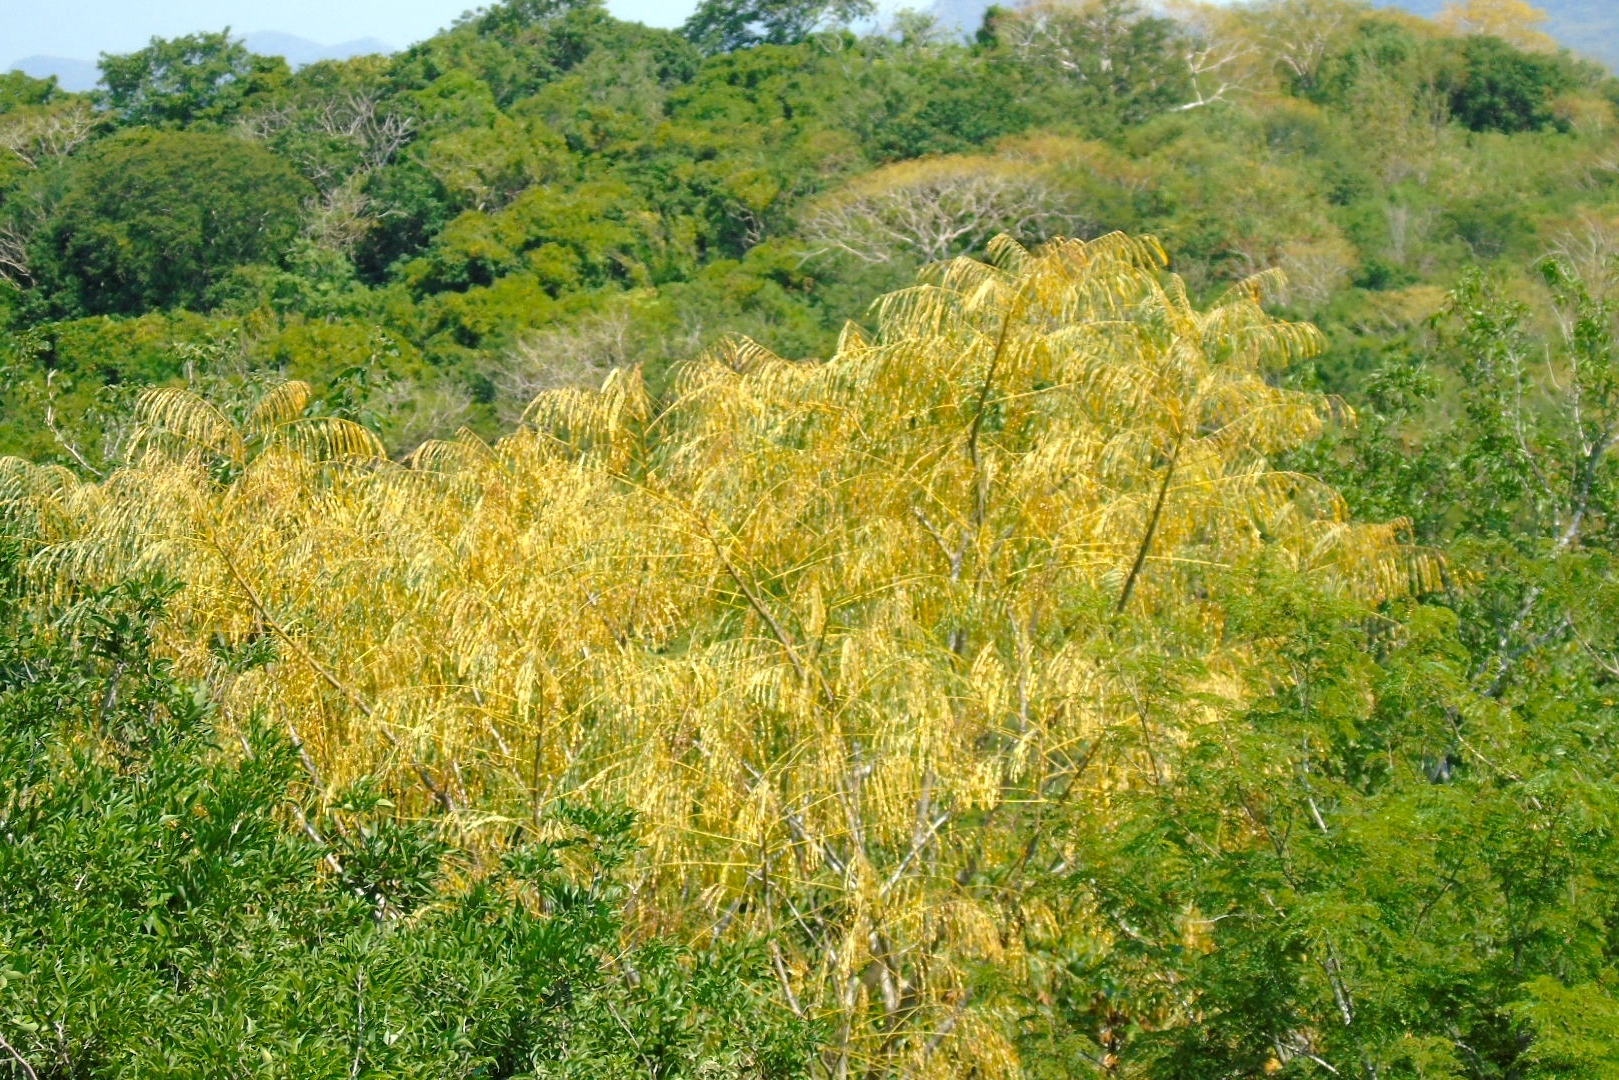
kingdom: Plantae
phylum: Tracheophyta
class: Magnoliopsida
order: Fabales
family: Fabaceae
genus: Conzattia
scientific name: Conzattia sericea
